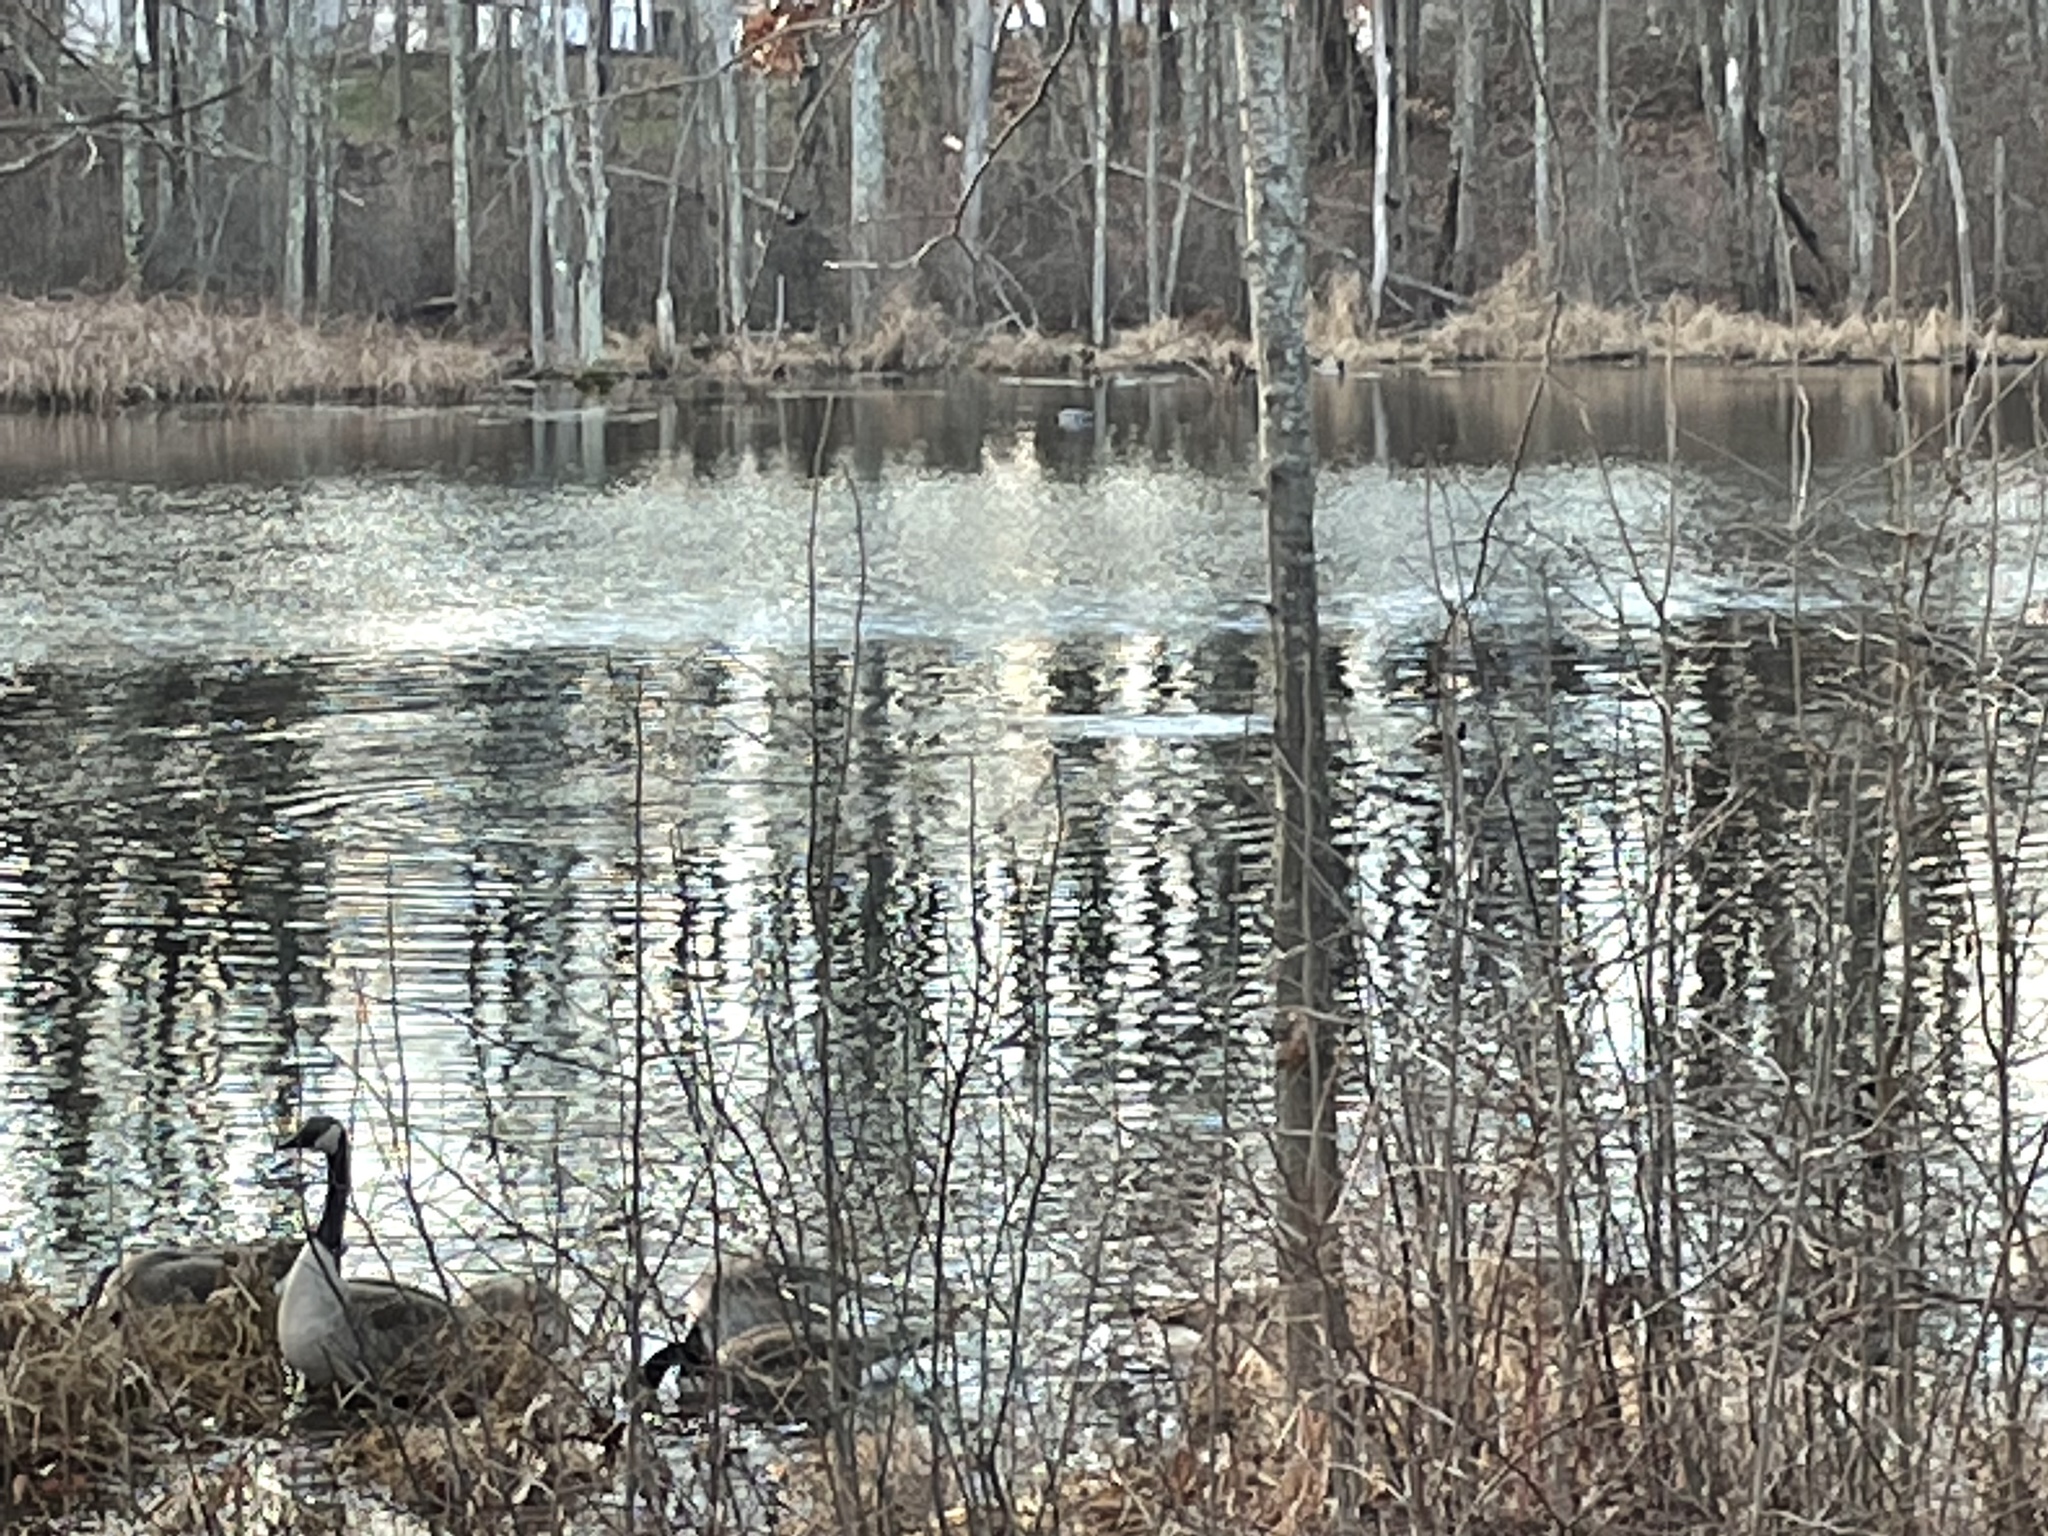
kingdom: Animalia
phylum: Chordata
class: Aves
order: Anseriformes
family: Anatidae
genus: Lophodytes
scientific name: Lophodytes cucullatus
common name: Hooded merganser
